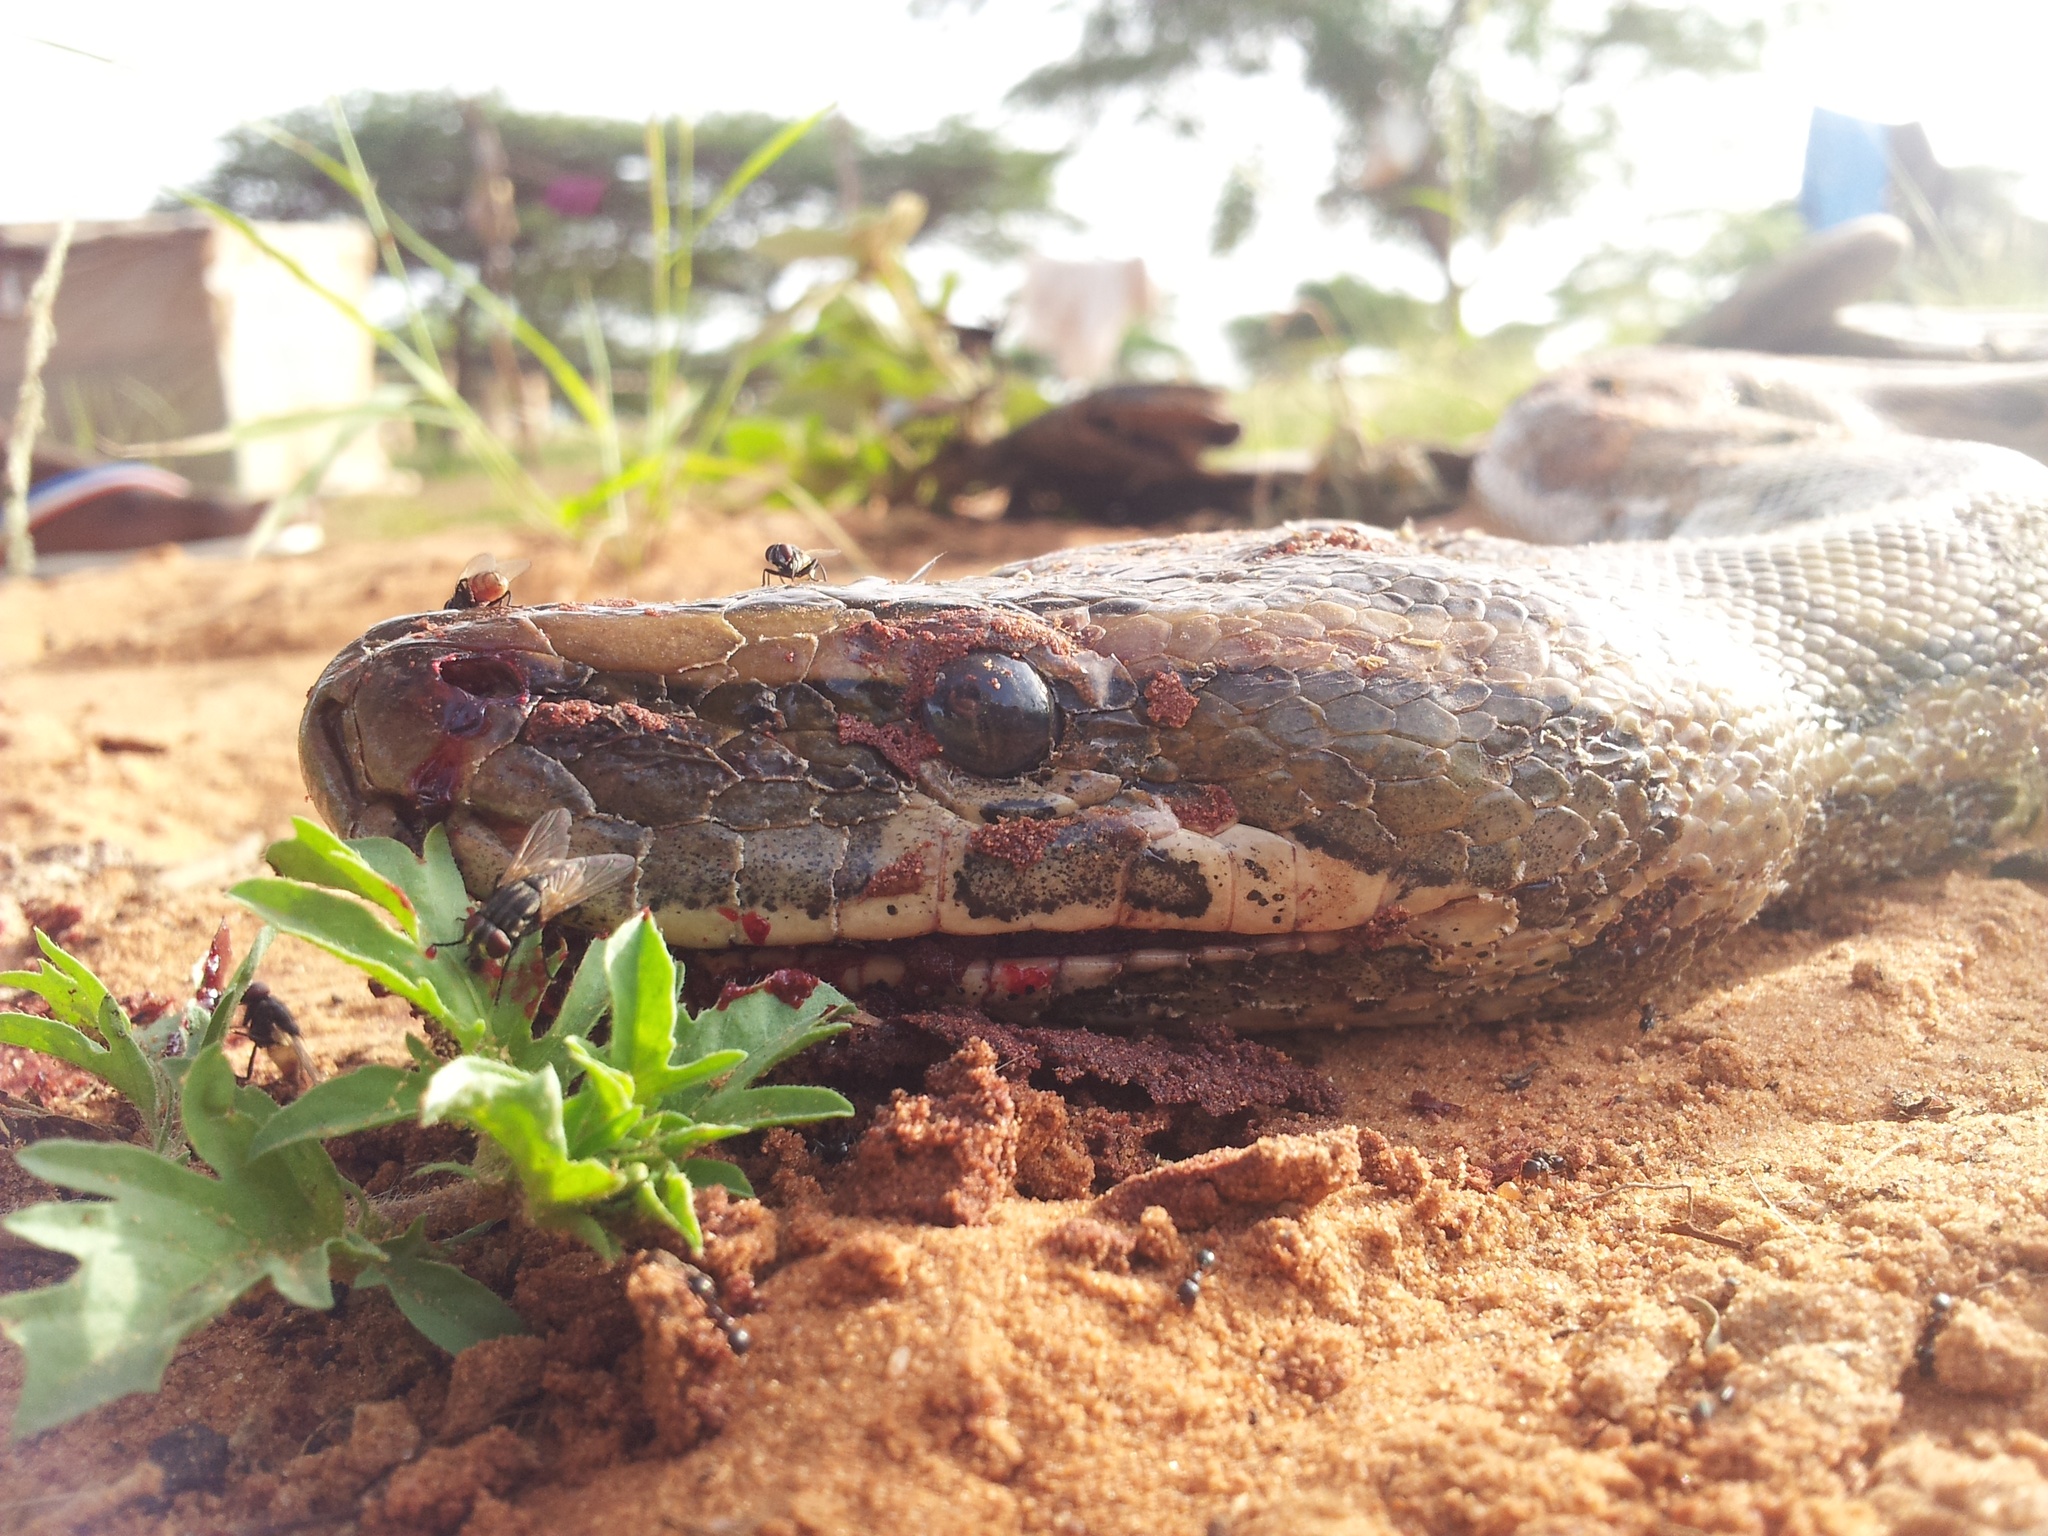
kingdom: Animalia
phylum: Chordata
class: Squamata
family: Pythonidae
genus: Python
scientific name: Python sebae
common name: African rock python
